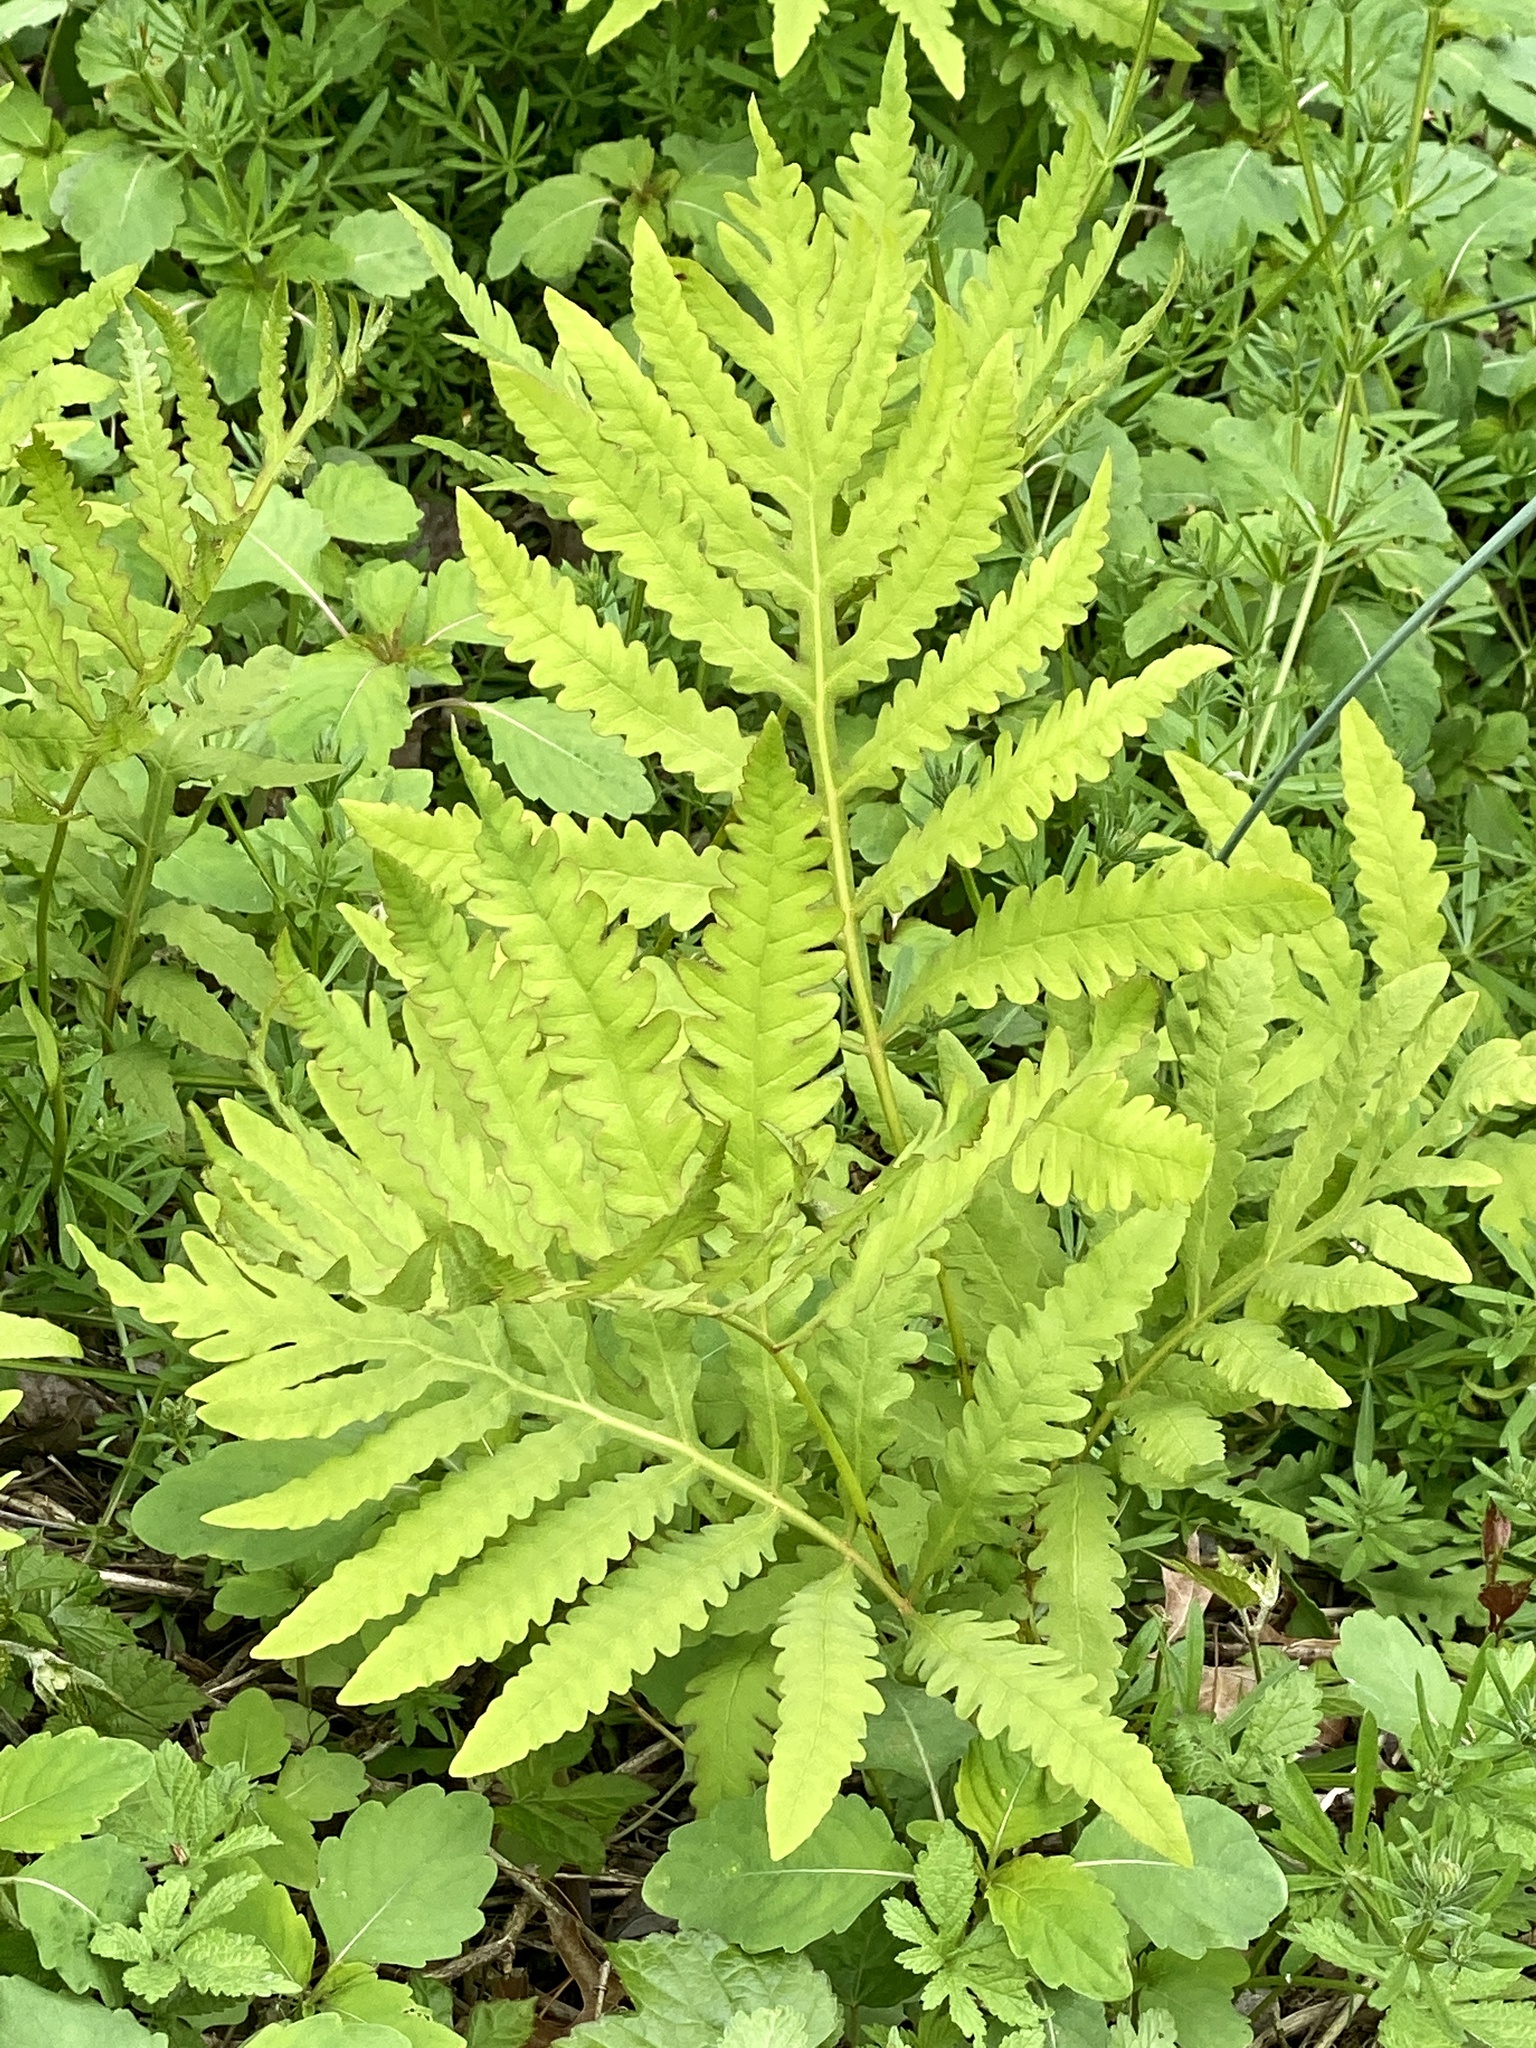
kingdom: Plantae
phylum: Tracheophyta
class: Polypodiopsida
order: Polypodiales
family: Onocleaceae
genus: Onoclea
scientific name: Onoclea sensibilis
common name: Sensitive fern
